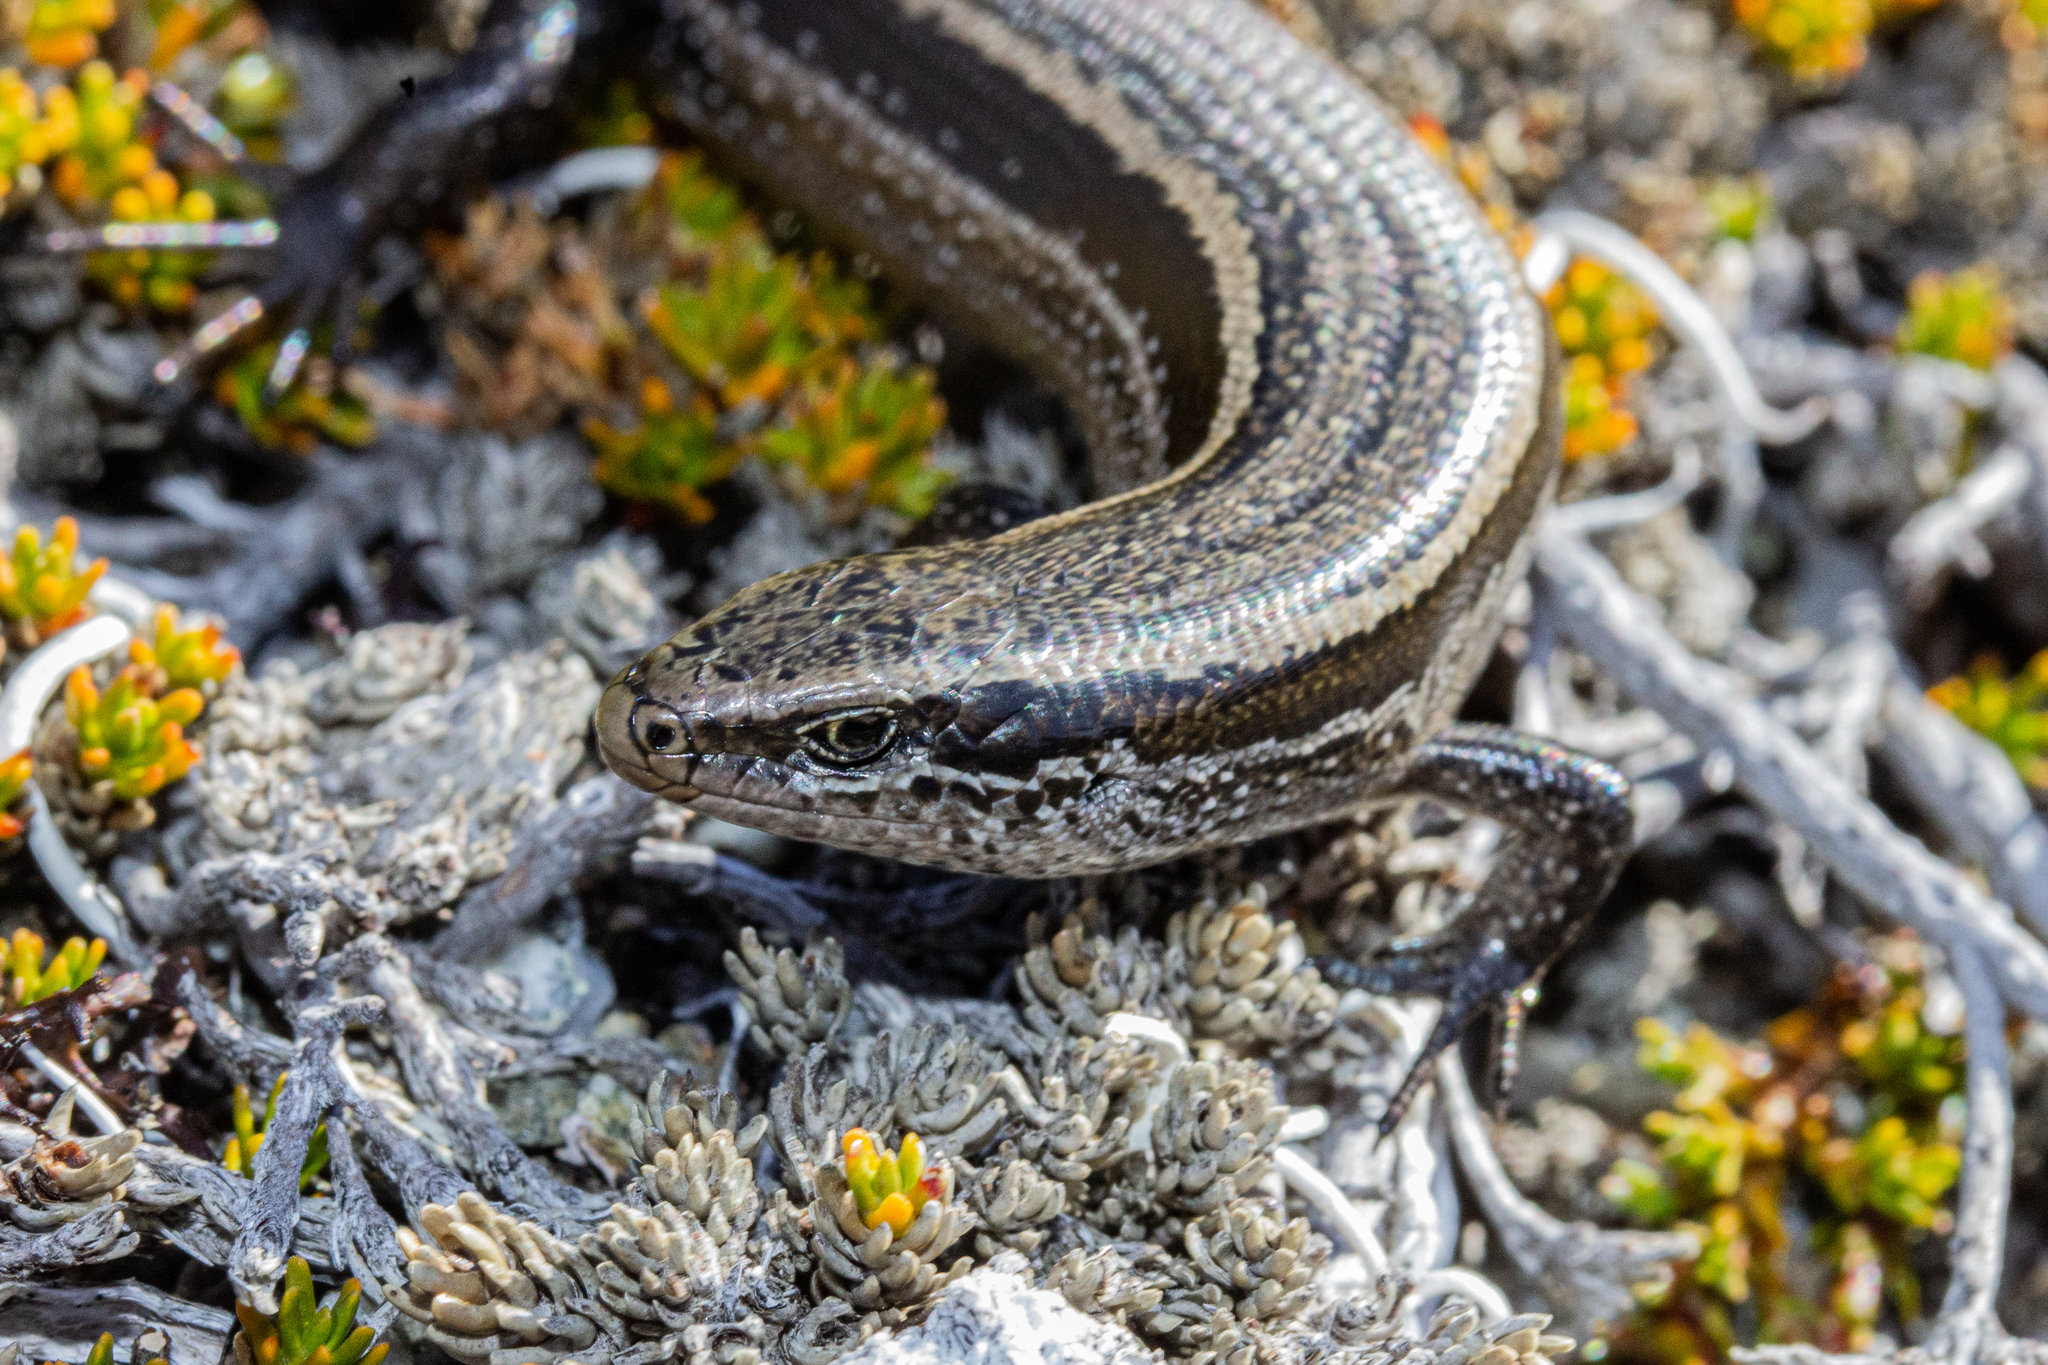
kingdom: Animalia
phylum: Chordata
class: Squamata
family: Scincidae
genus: Oligosoma
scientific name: Oligosoma toka
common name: Nevis skink
